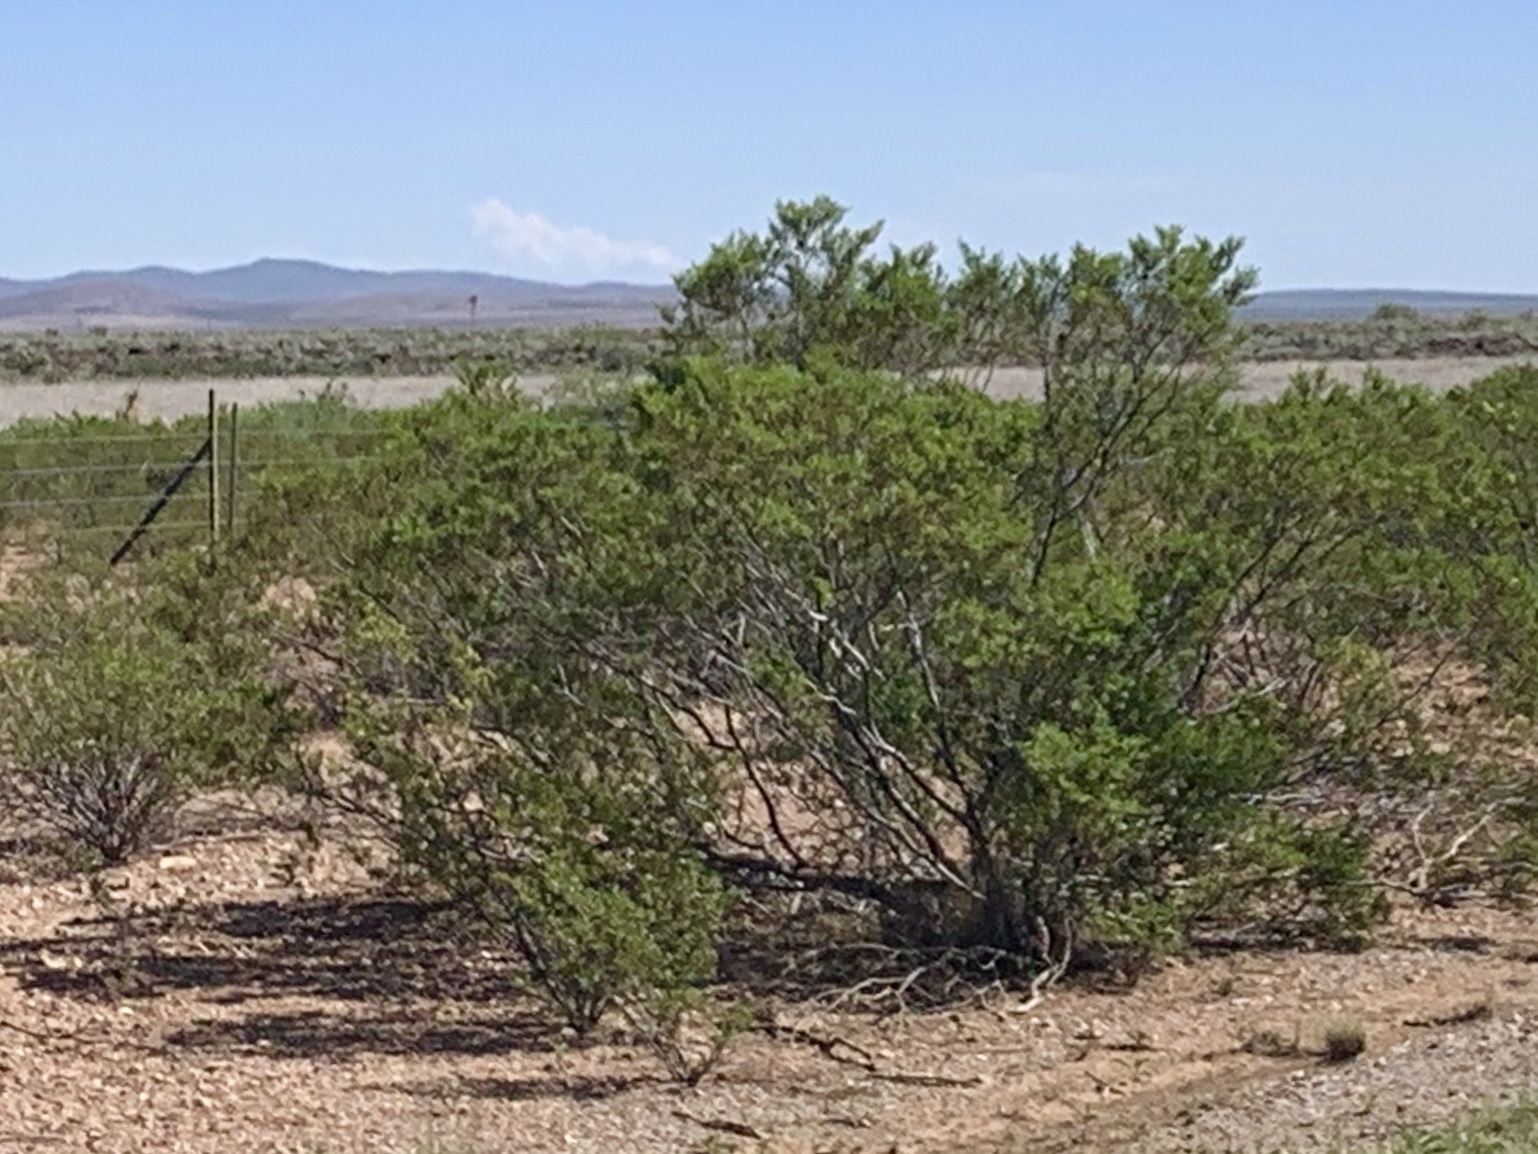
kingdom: Plantae
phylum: Tracheophyta
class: Magnoliopsida
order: Zygophyllales
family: Zygophyllaceae
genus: Larrea
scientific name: Larrea tridentata
